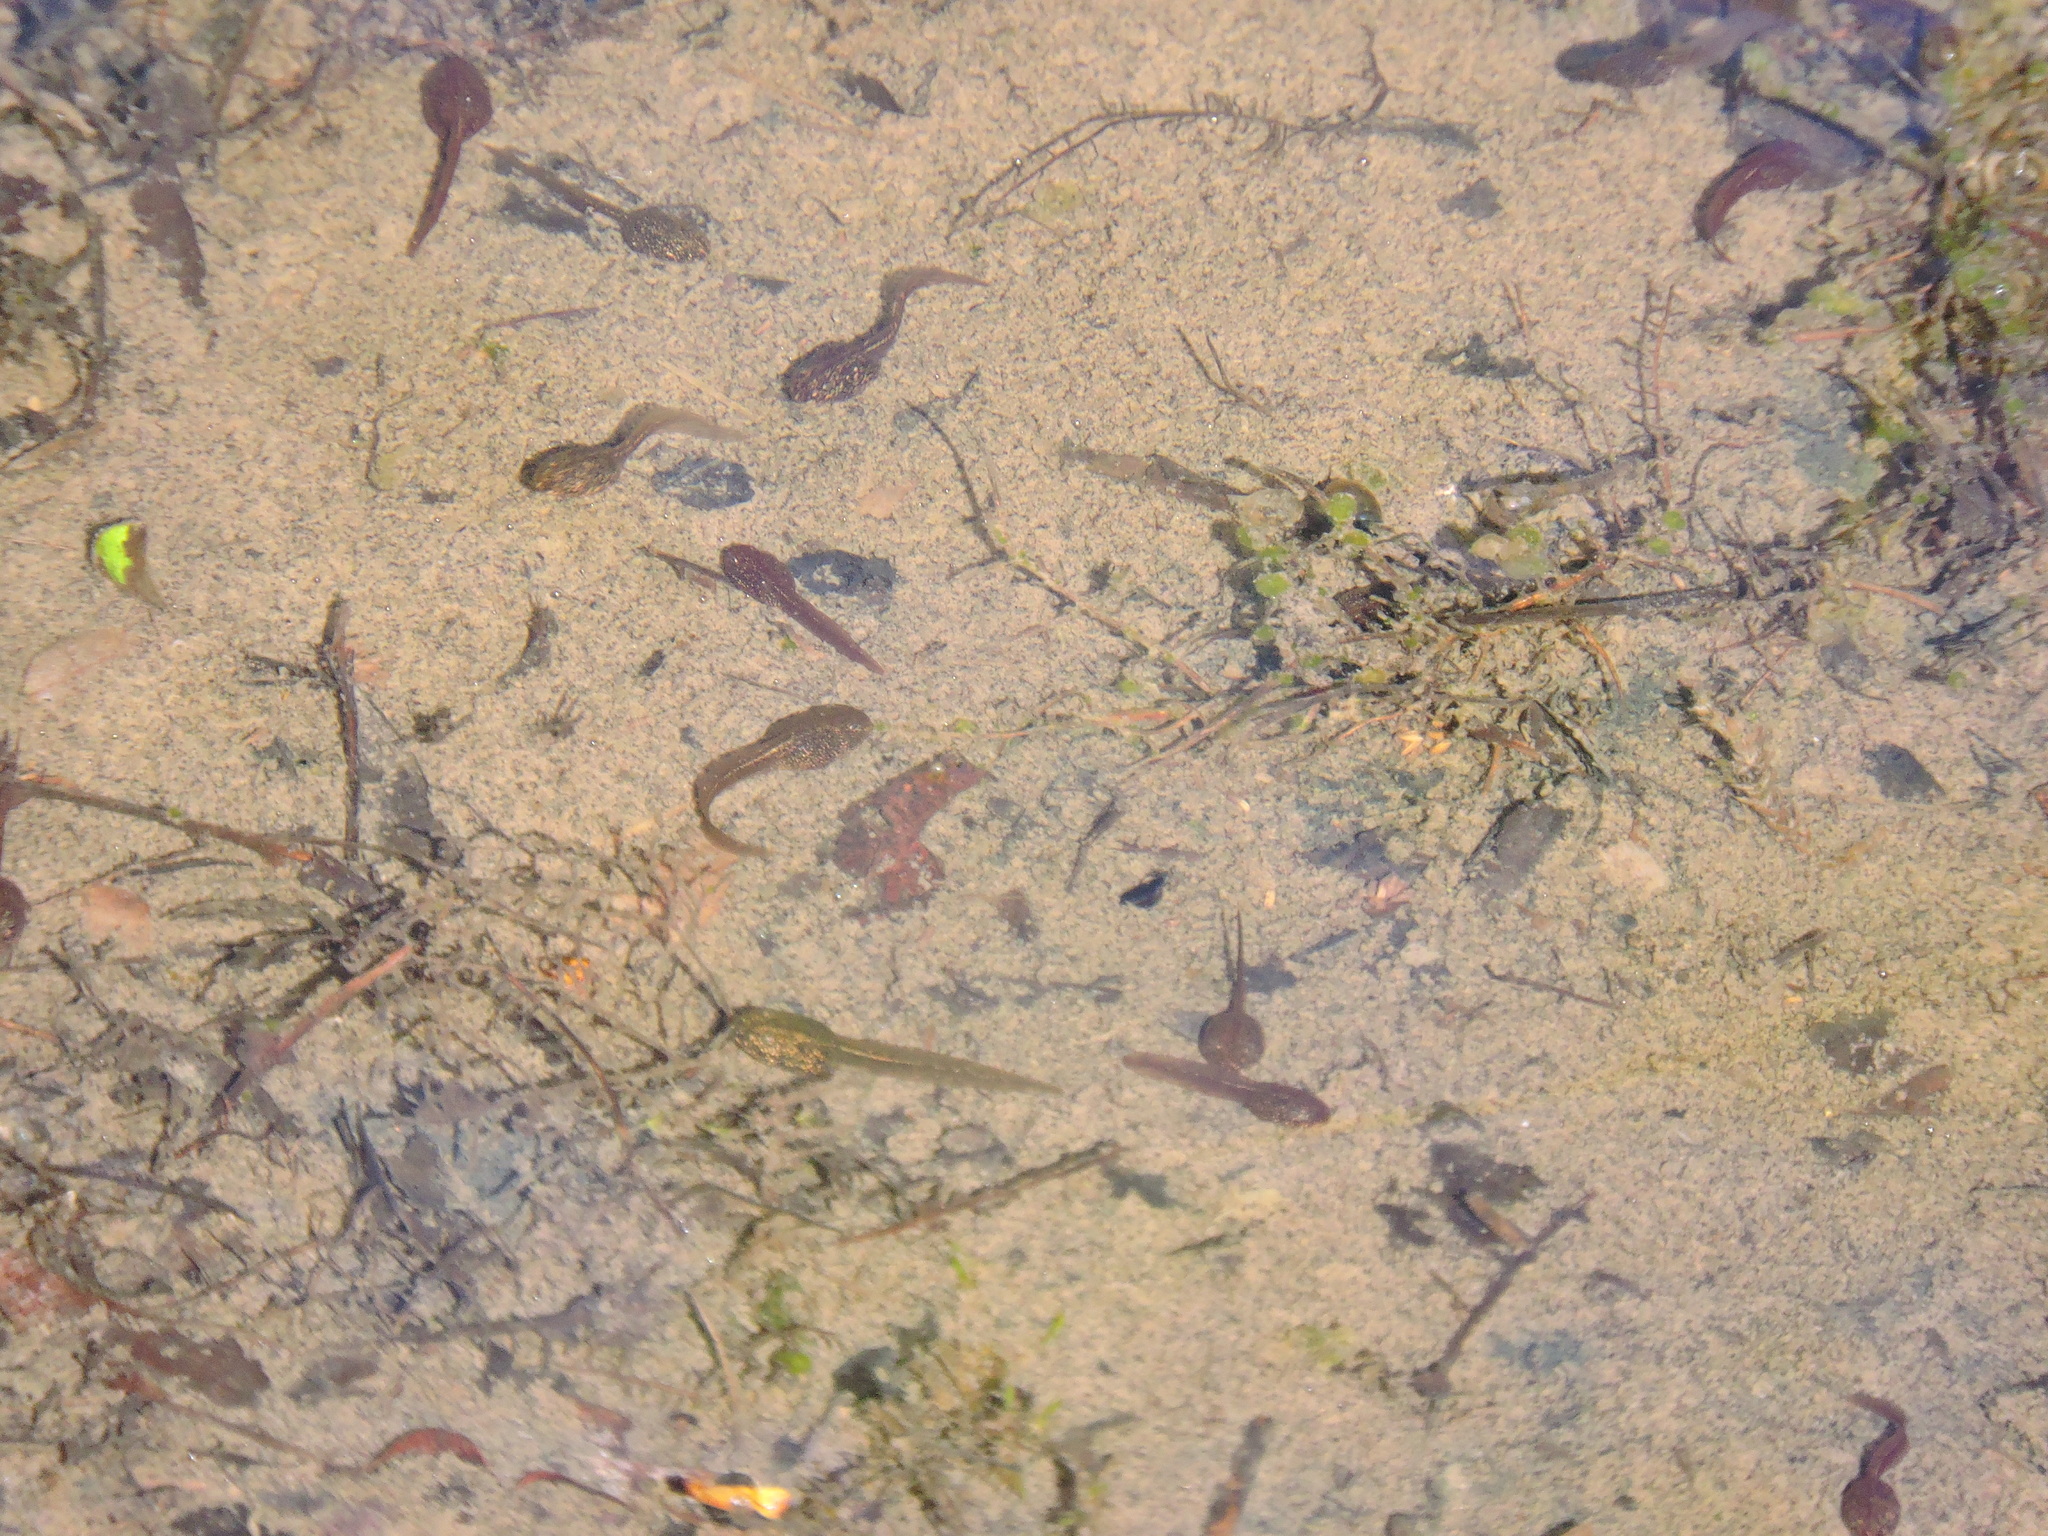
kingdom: Animalia
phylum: Chordata
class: Amphibia
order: Anura
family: Ranidae
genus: Rana
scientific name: Rana temporaria
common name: Common frog
